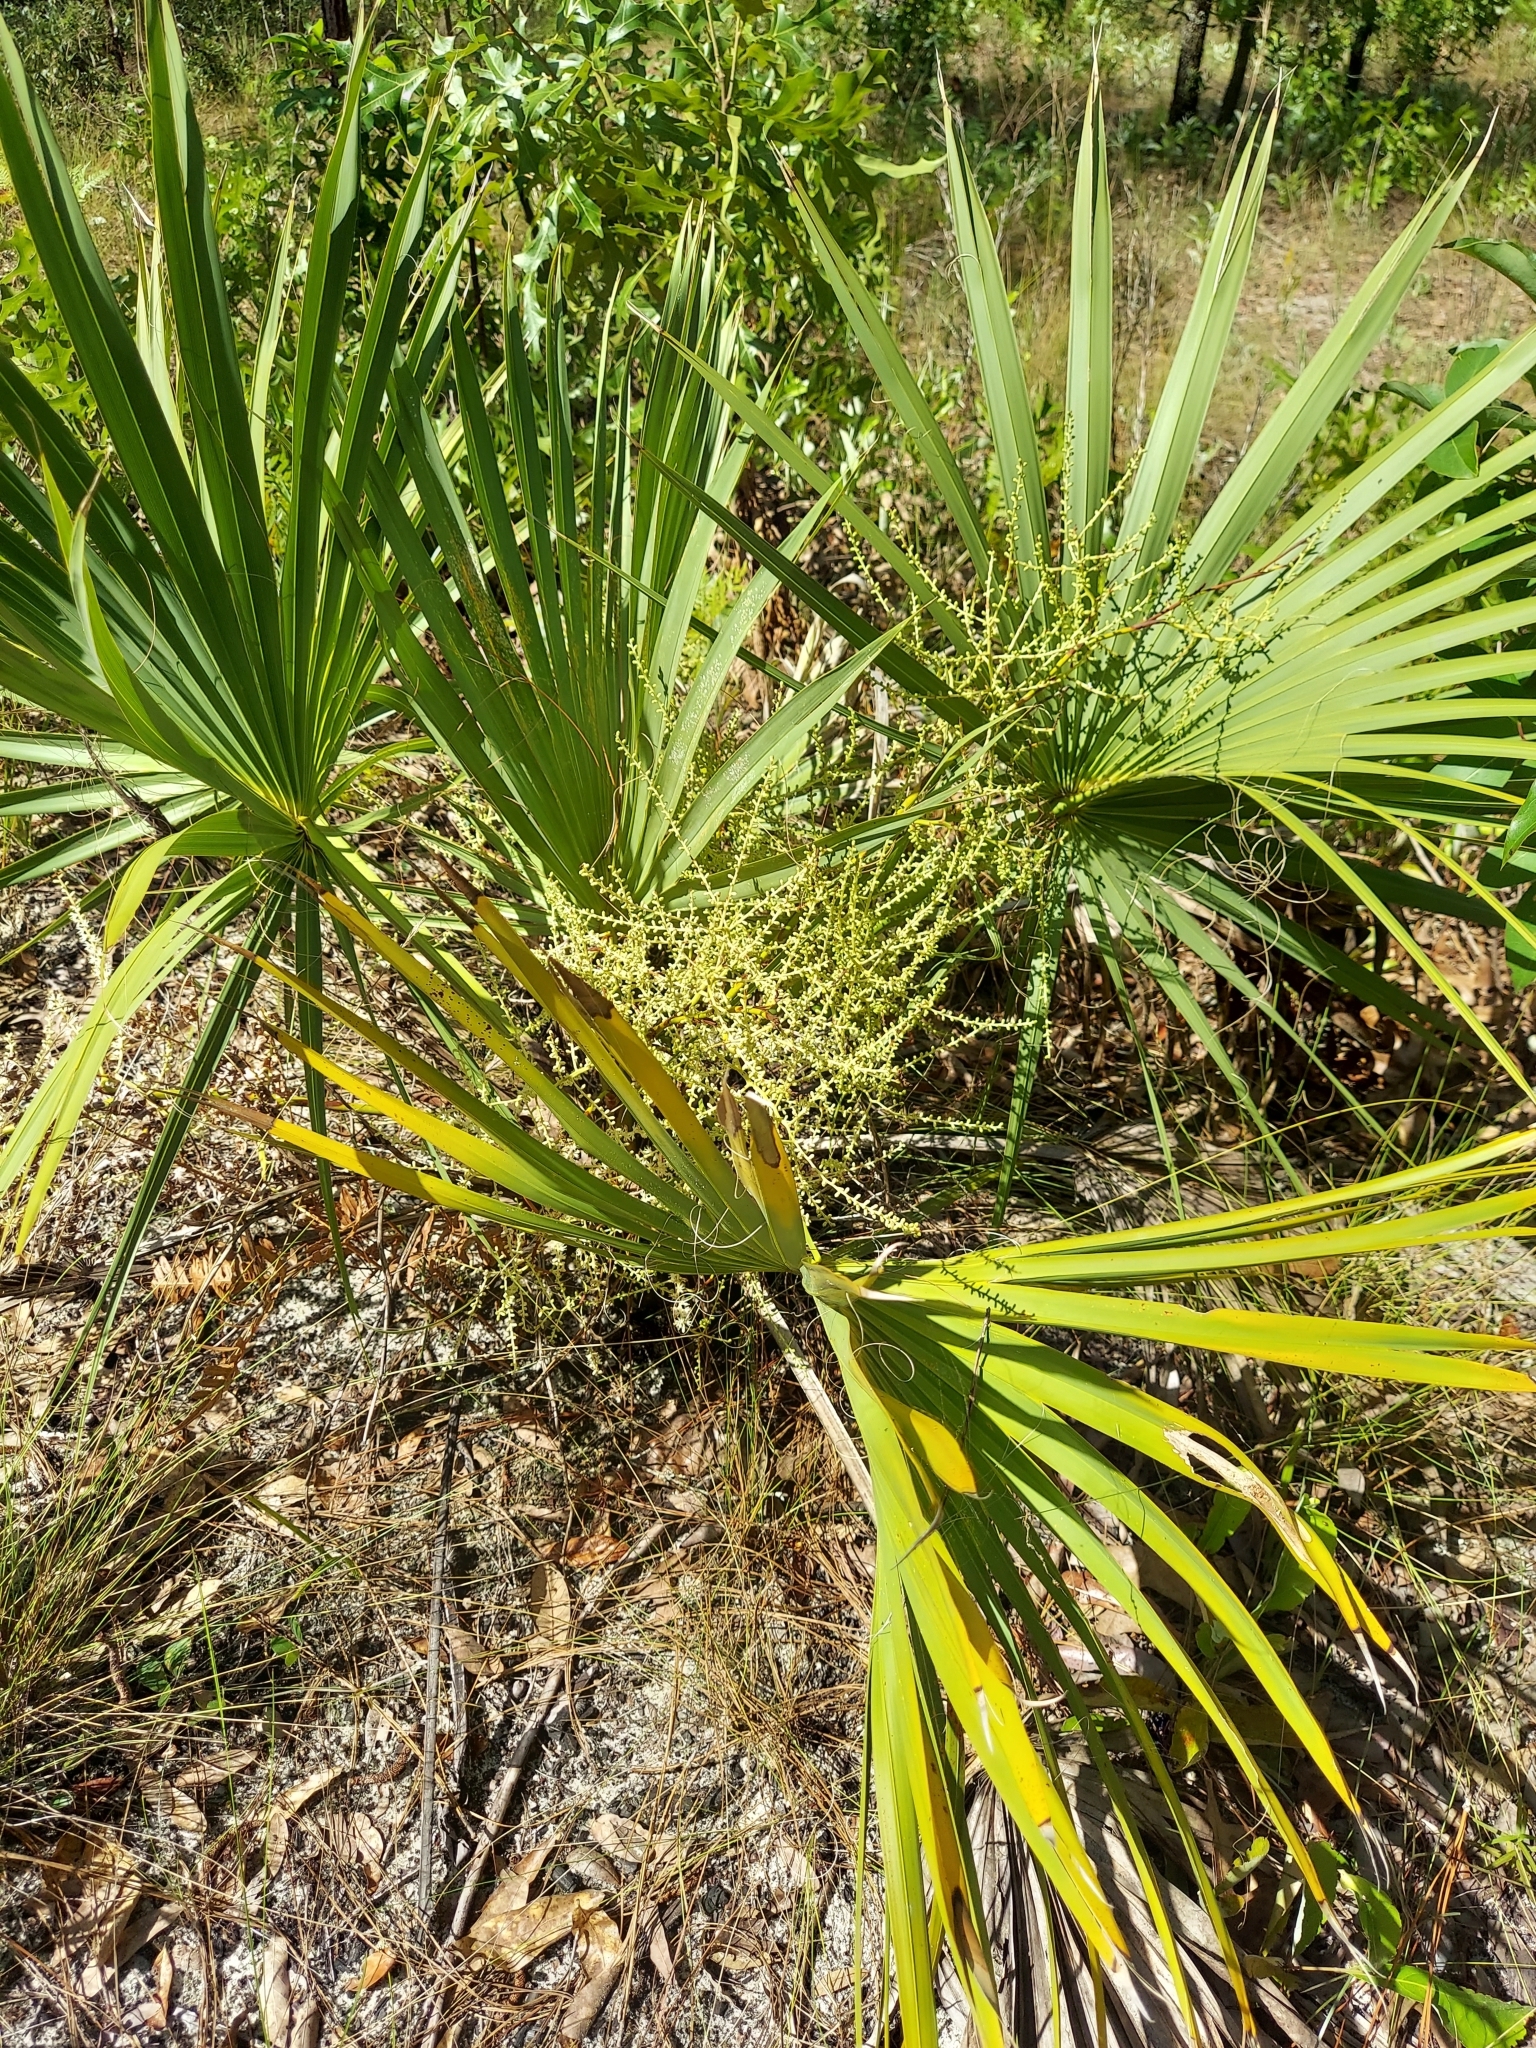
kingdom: Plantae
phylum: Tracheophyta
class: Liliopsida
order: Arecales
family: Arecaceae
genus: Sabal
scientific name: Sabal etonia
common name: Dwarf palmetto
